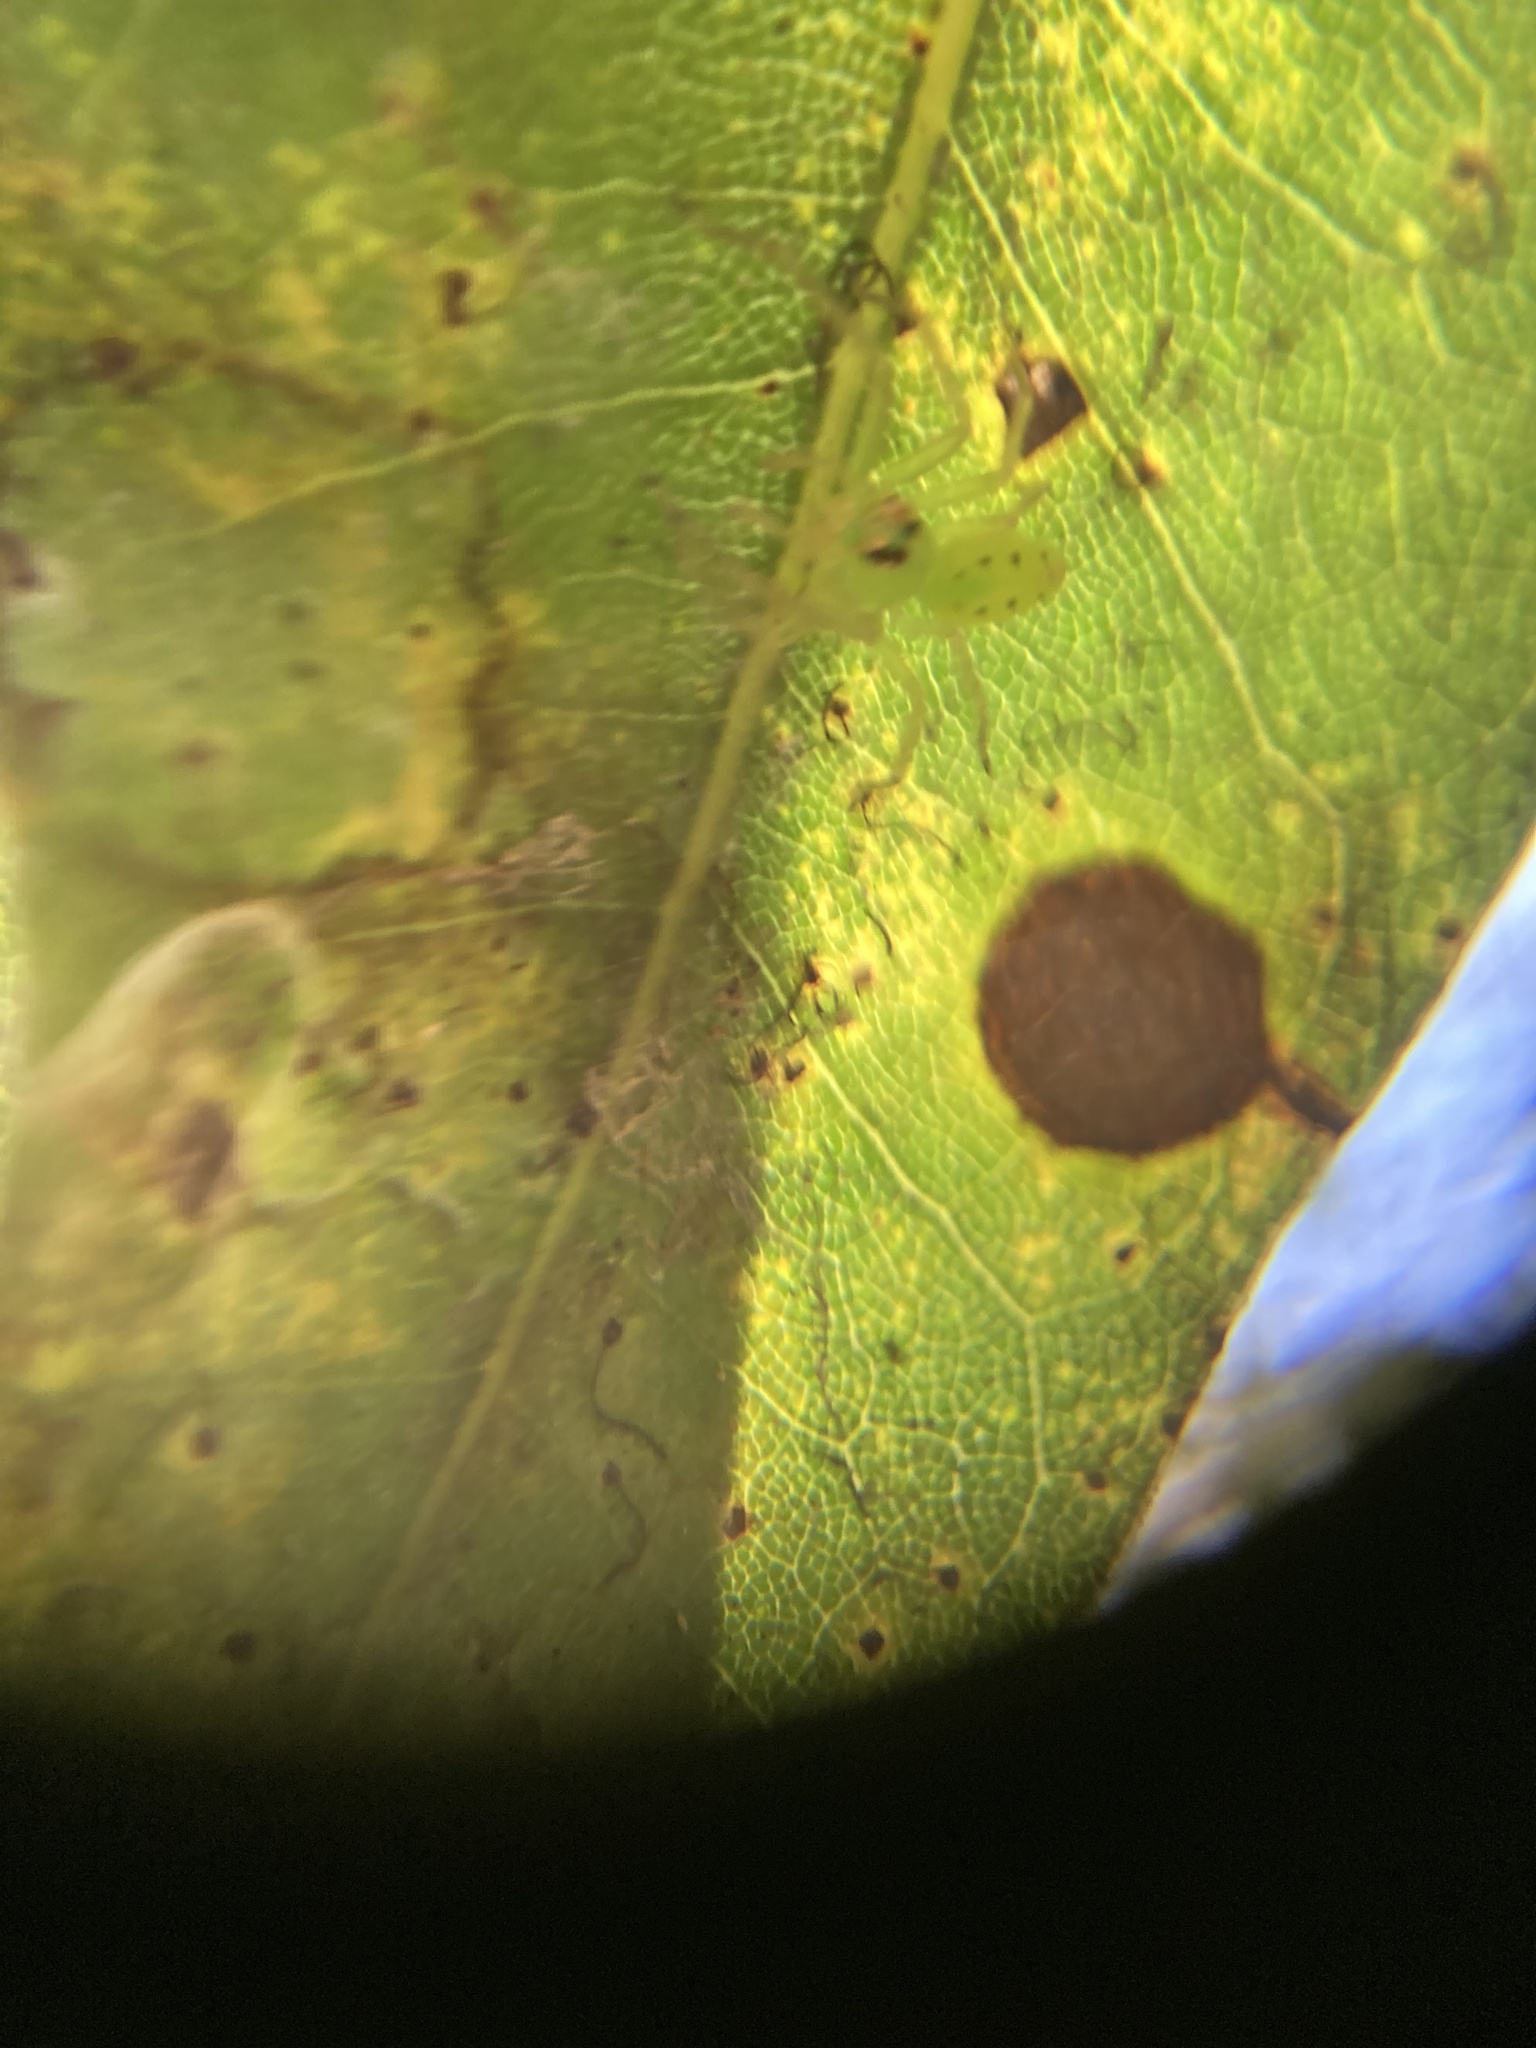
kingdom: Animalia
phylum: Arthropoda
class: Arachnida
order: Araneae
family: Salticidae
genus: Lyssomanes
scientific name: Lyssomanes viridis
